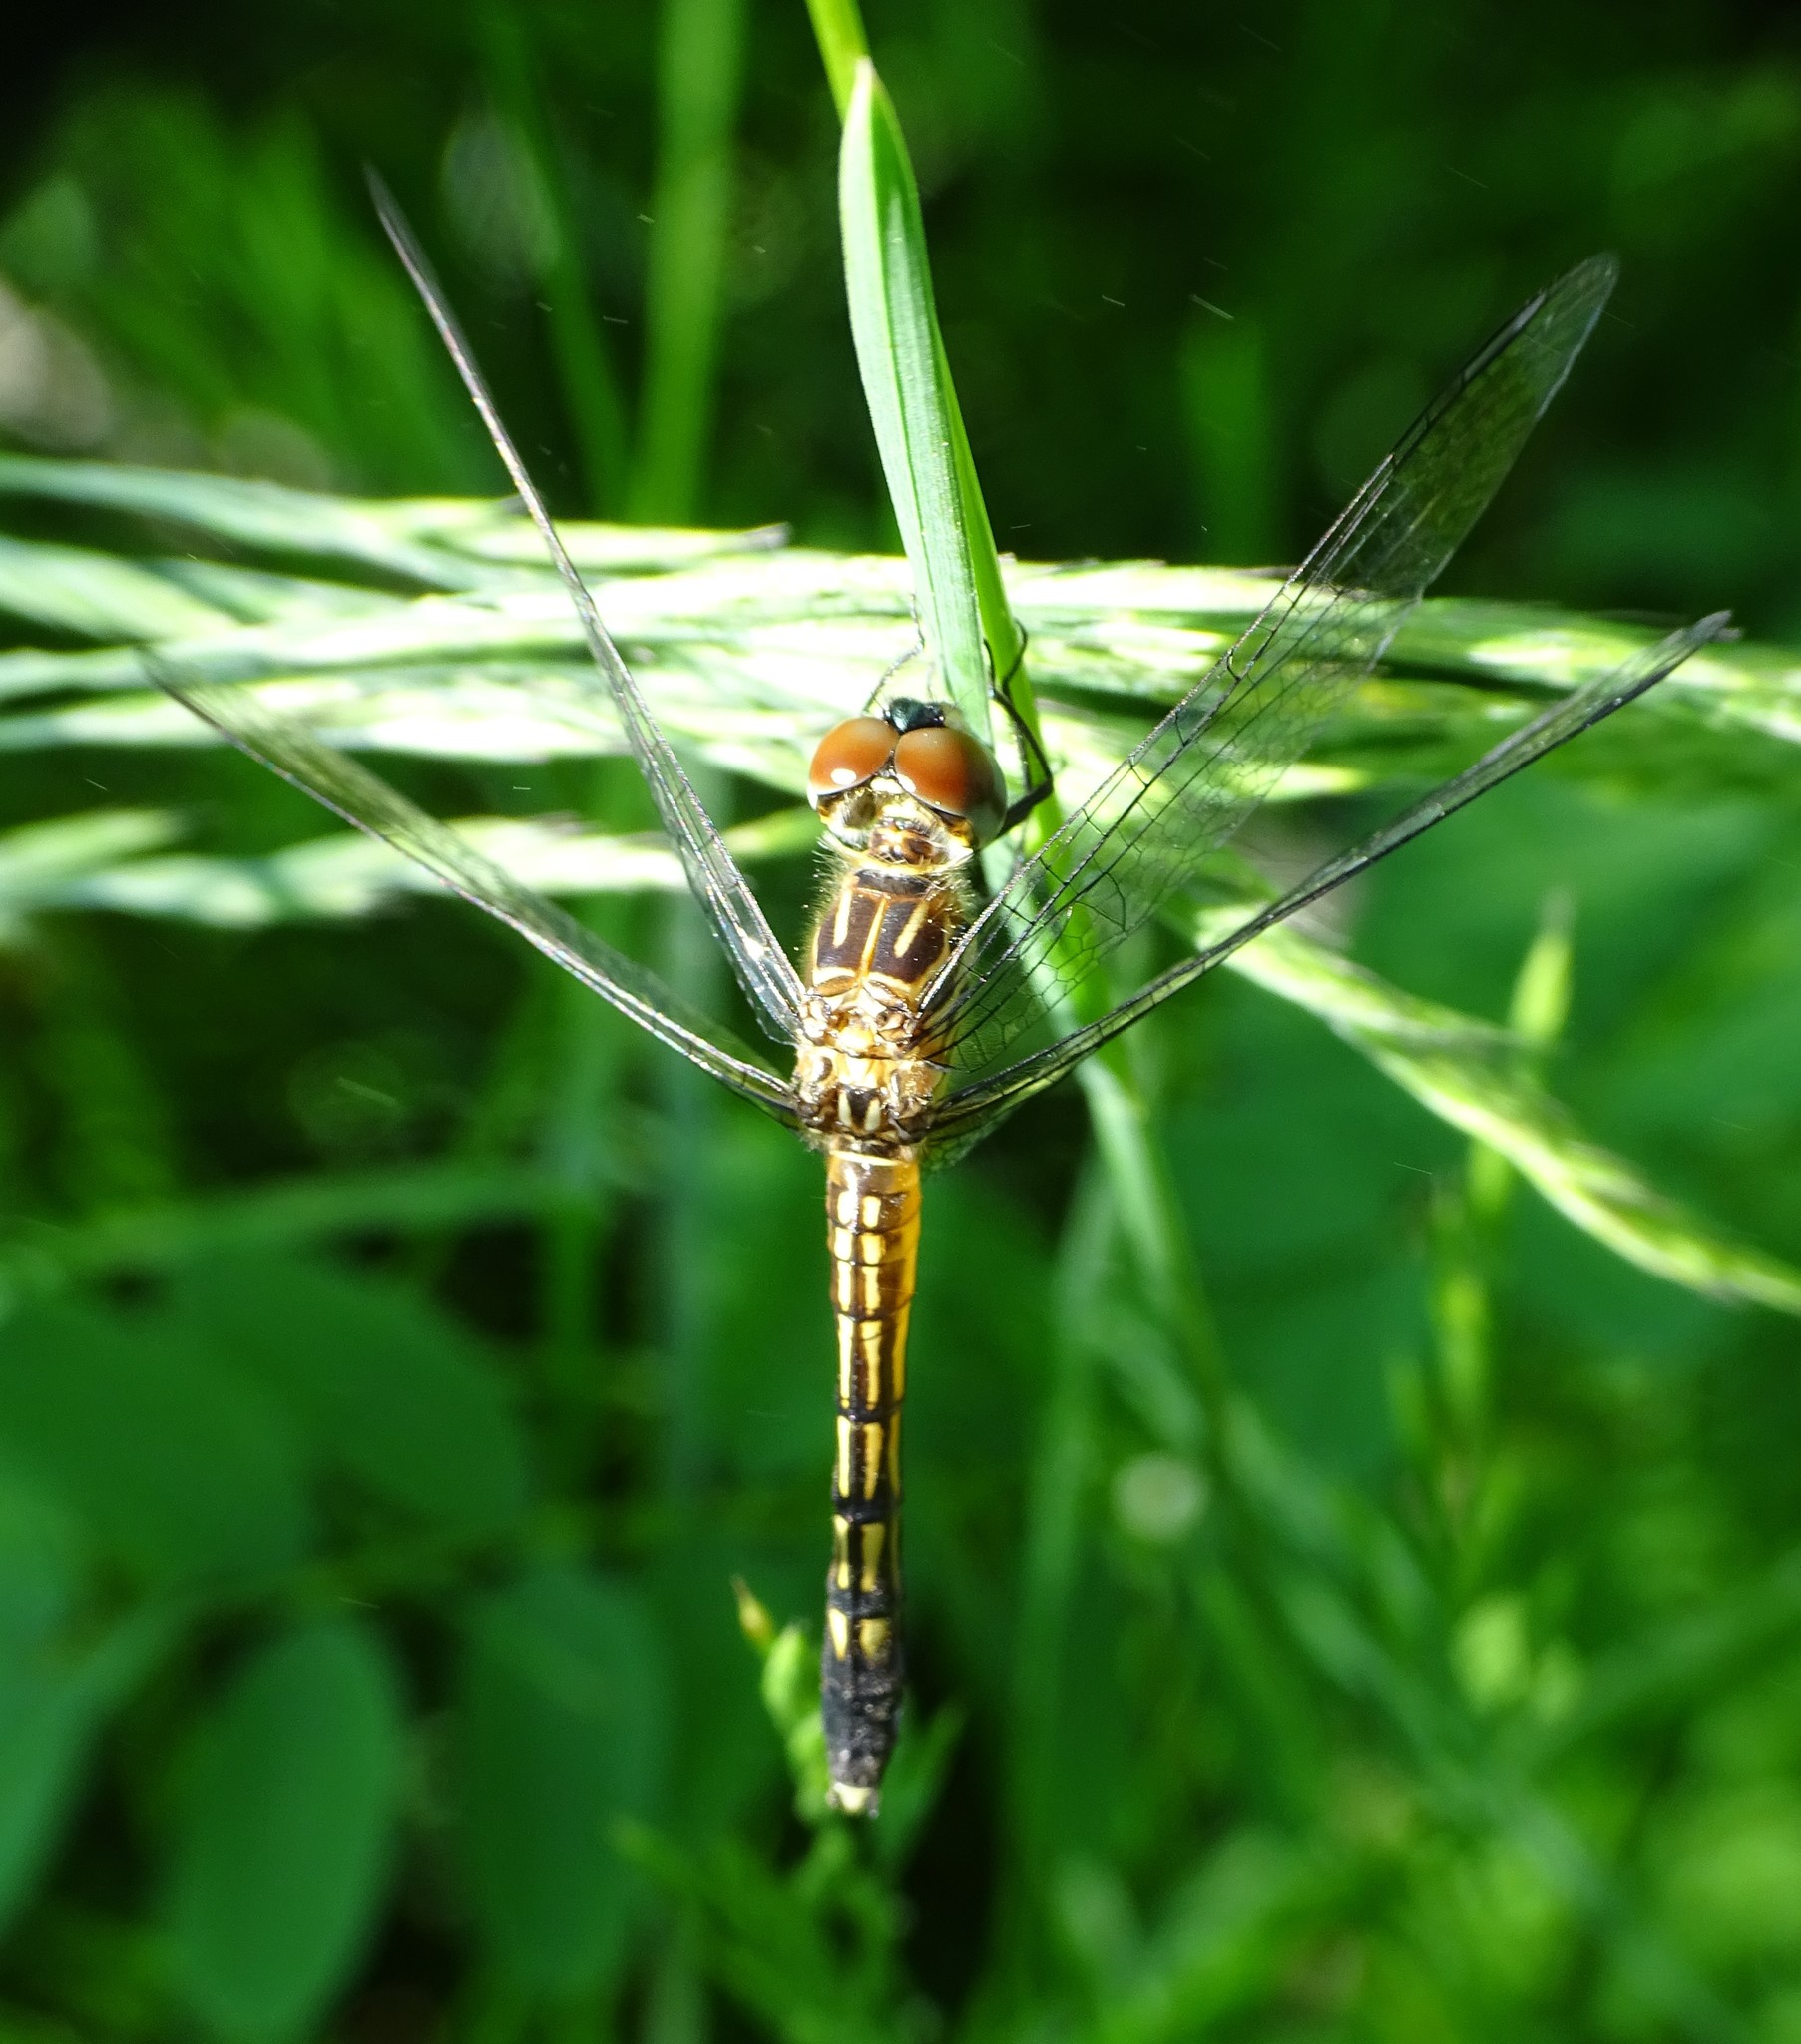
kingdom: Animalia
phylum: Arthropoda
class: Insecta
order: Odonata
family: Libellulidae
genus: Pachydiplax
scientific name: Pachydiplax longipennis
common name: Blue dasher
